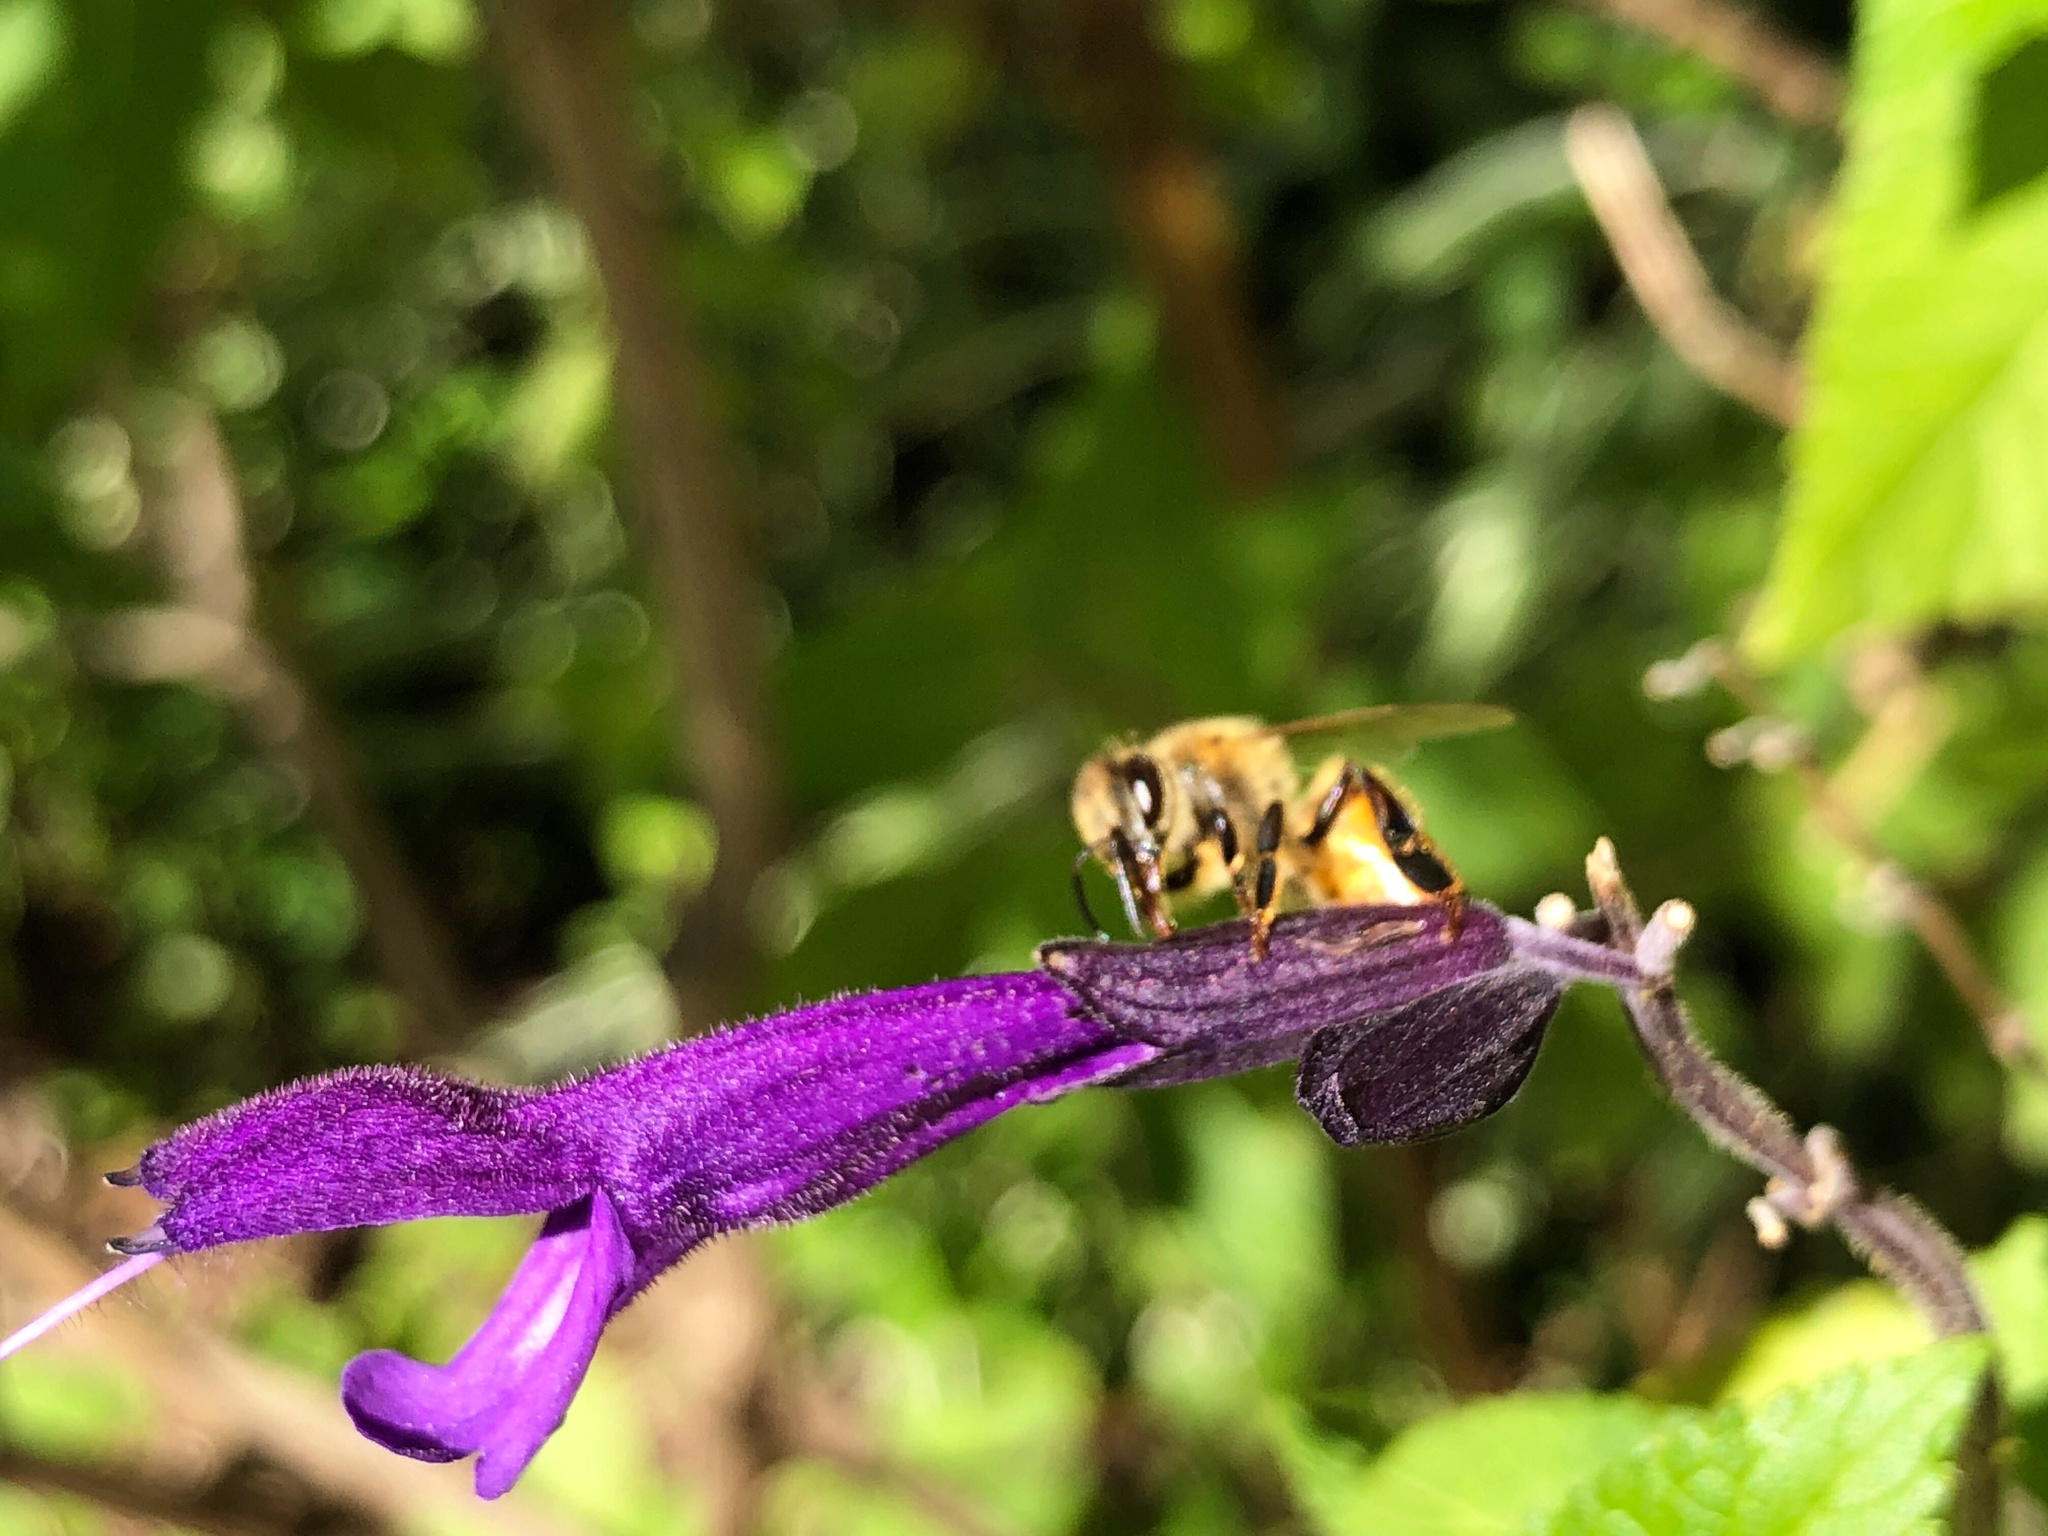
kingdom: Animalia
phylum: Arthropoda
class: Insecta
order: Hymenoptera
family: Apidae
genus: Apis
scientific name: Apis mellifera
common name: Honey bee
